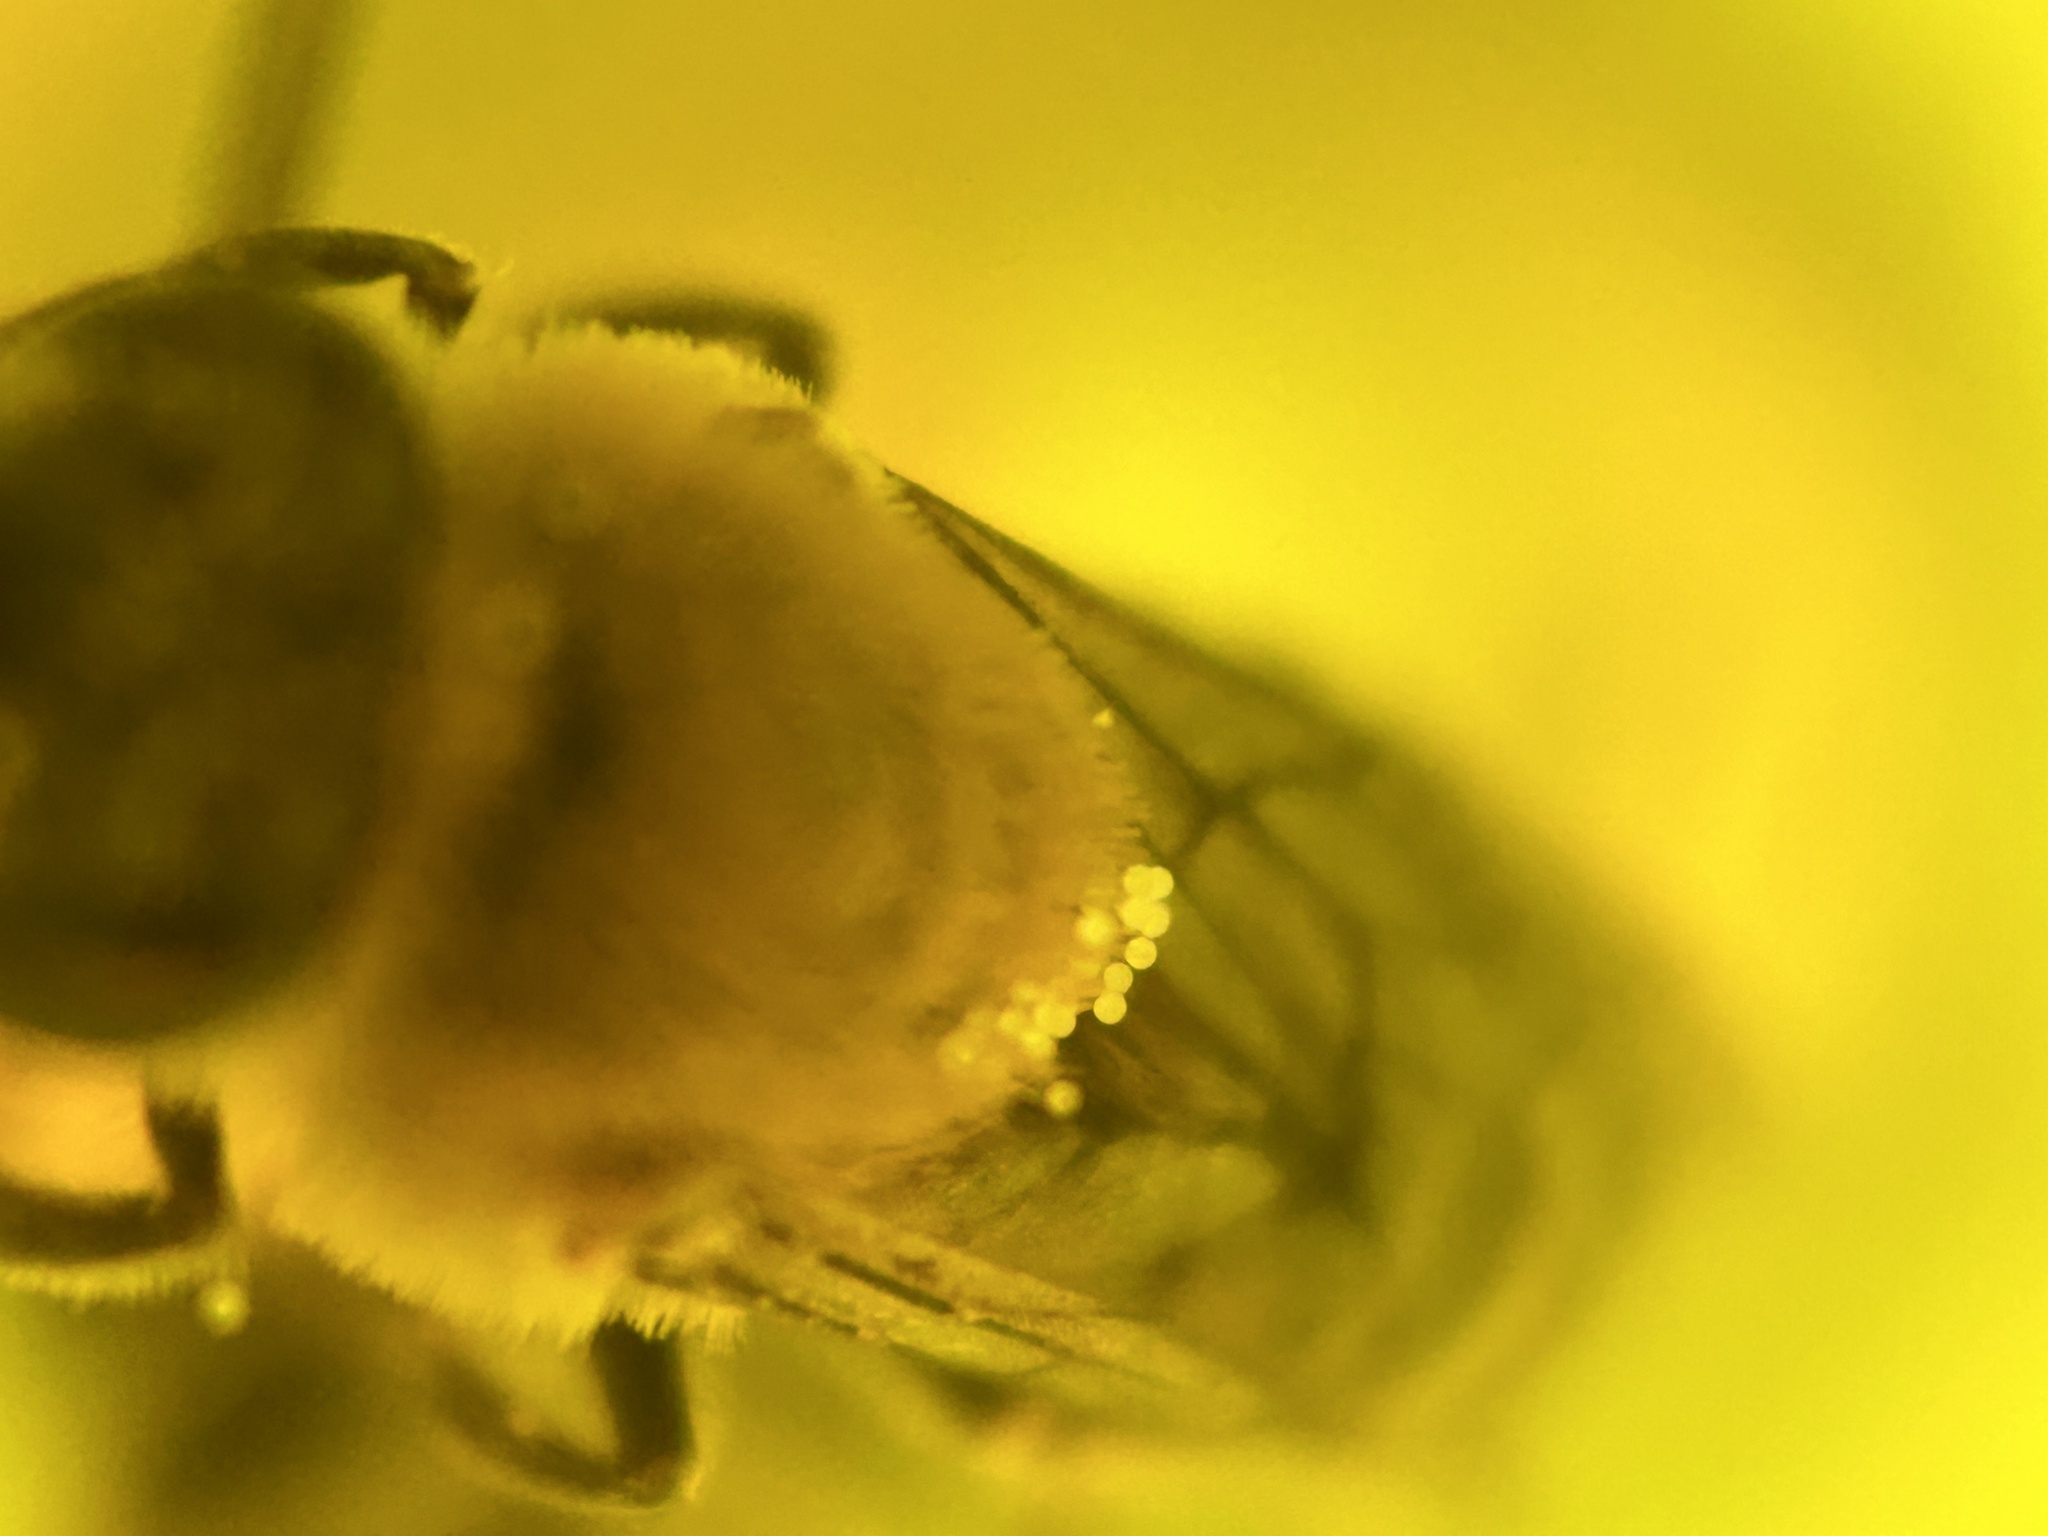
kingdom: Animalia
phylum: Arthropoda
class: Insecta
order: Hymenoptera
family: Apidae
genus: Peponapis
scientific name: Peponapis pruinosa
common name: Pruinose squash bee
